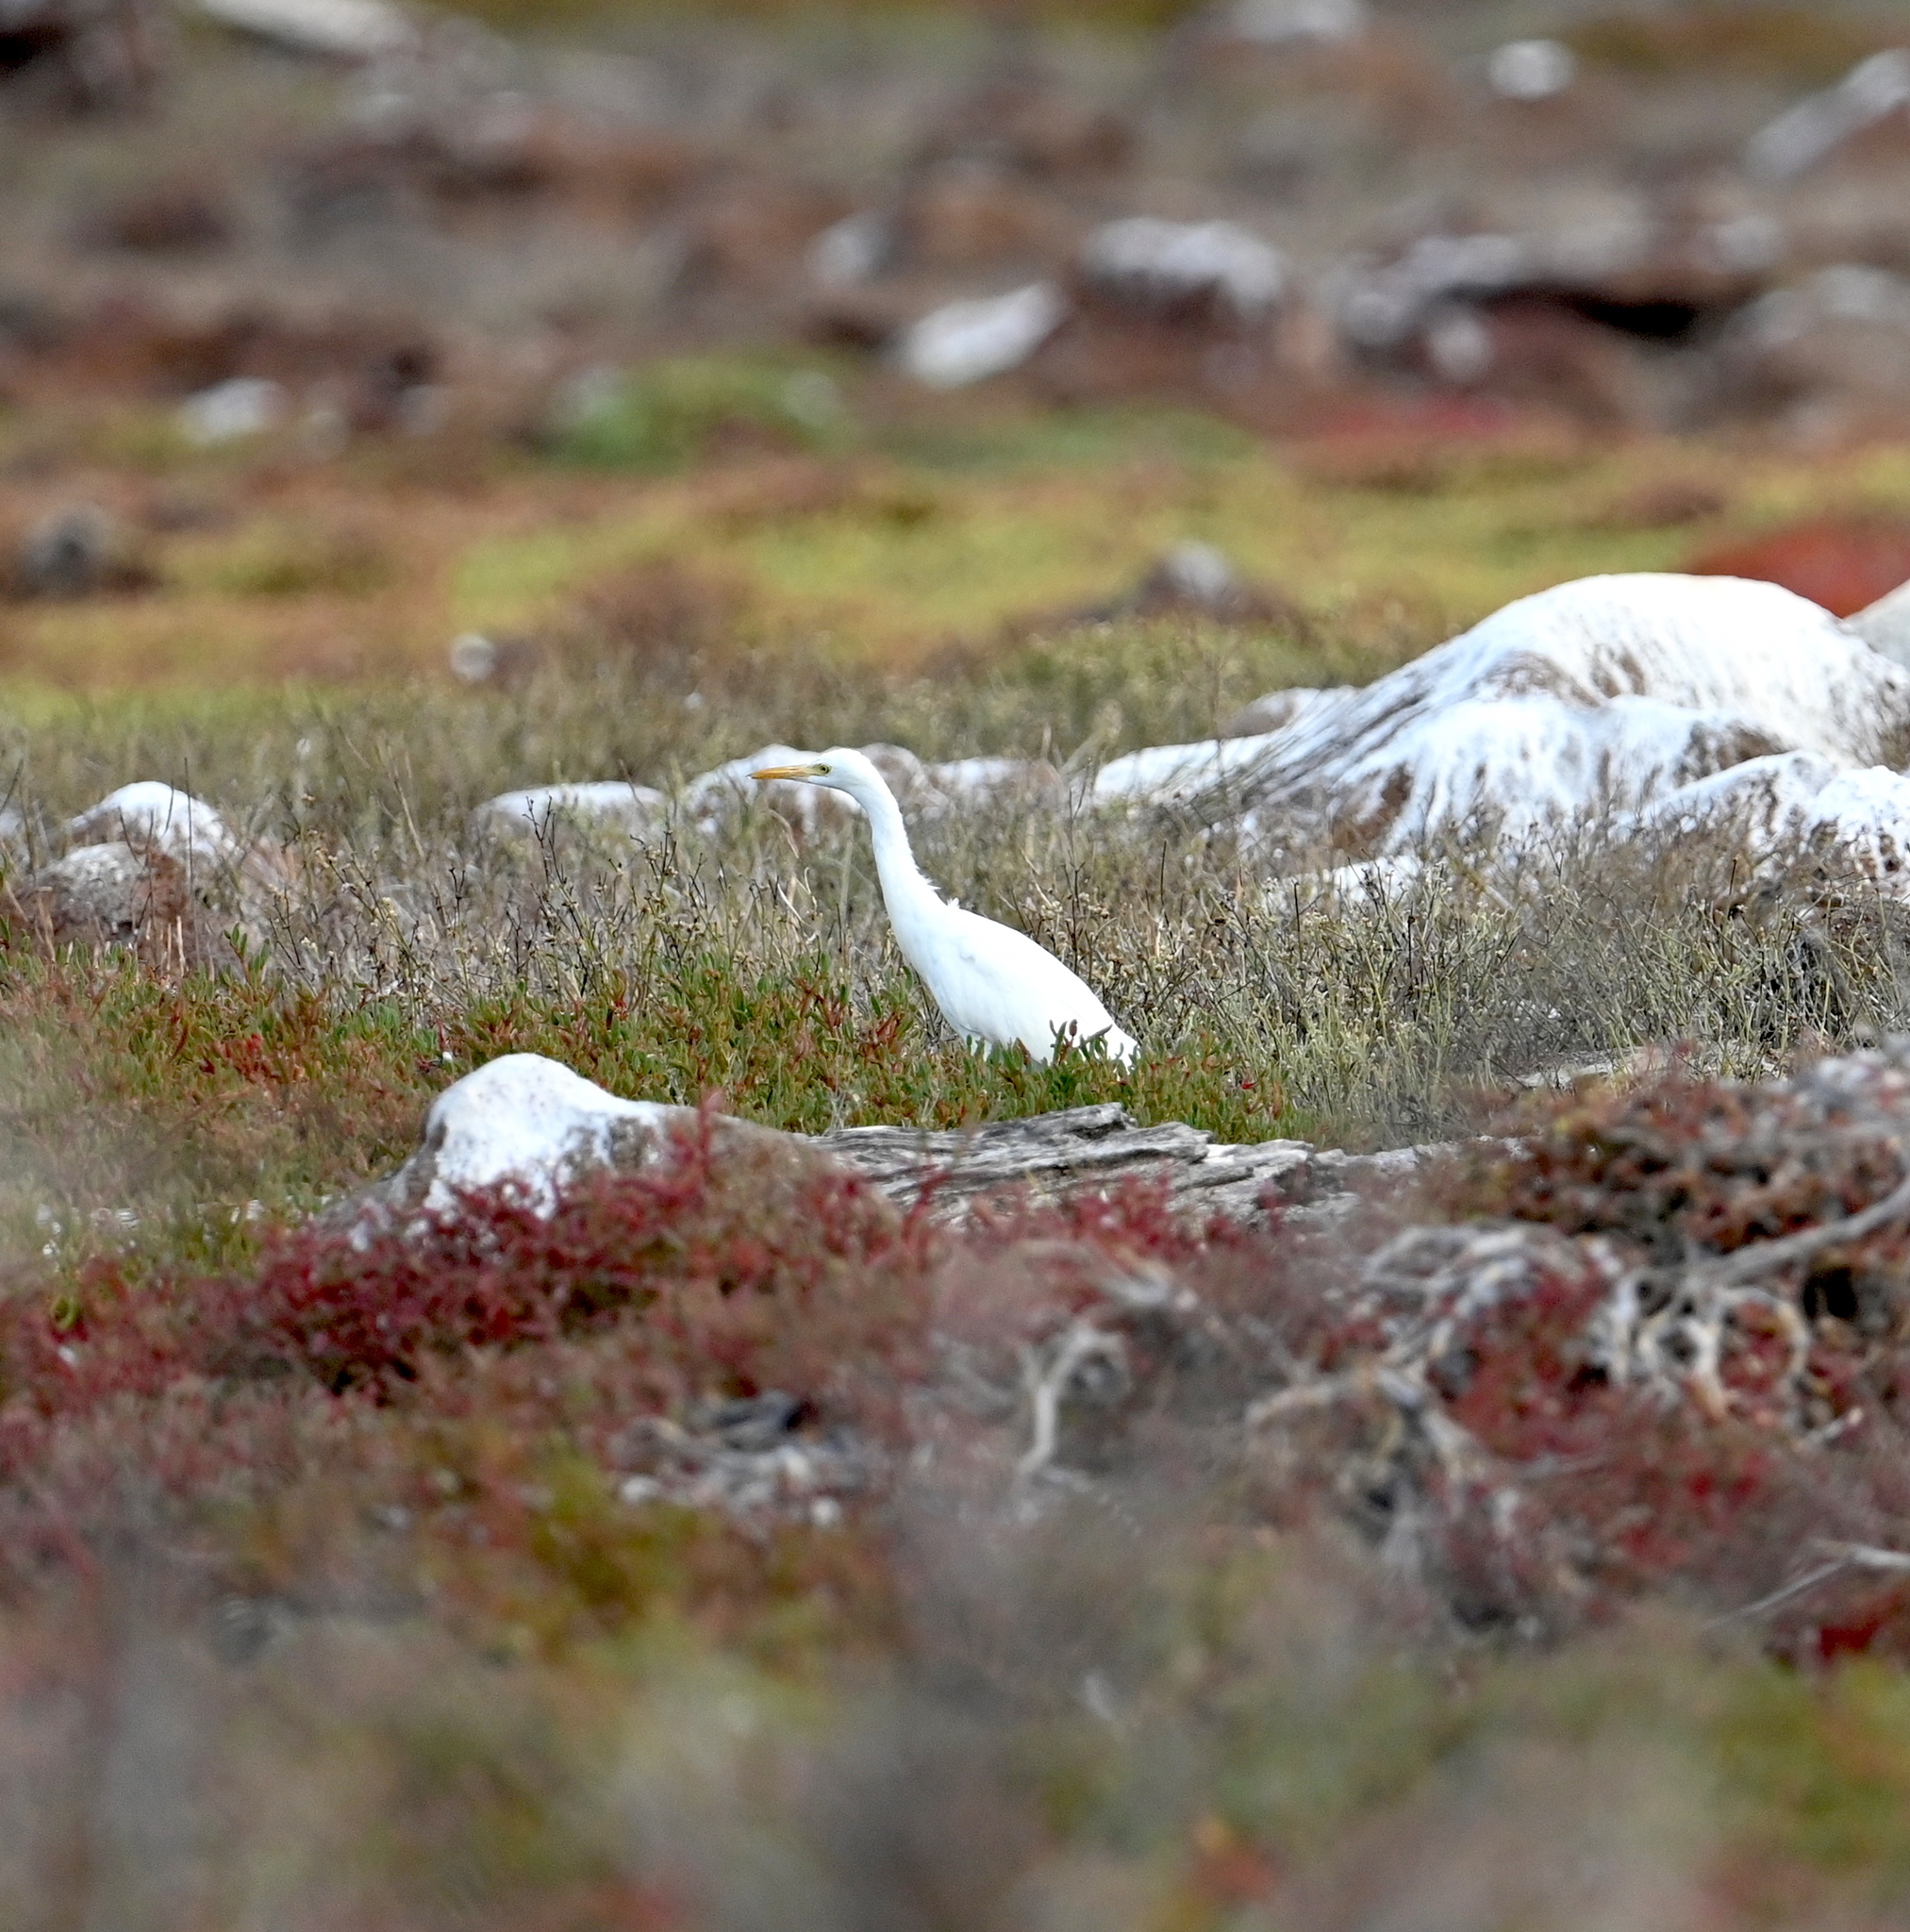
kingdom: Animalia
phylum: Chordata
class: Aves
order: Pelecaniformes
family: Ardeidae
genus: Bubulcus
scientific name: Bubulcus ibis
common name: Cattle egret
